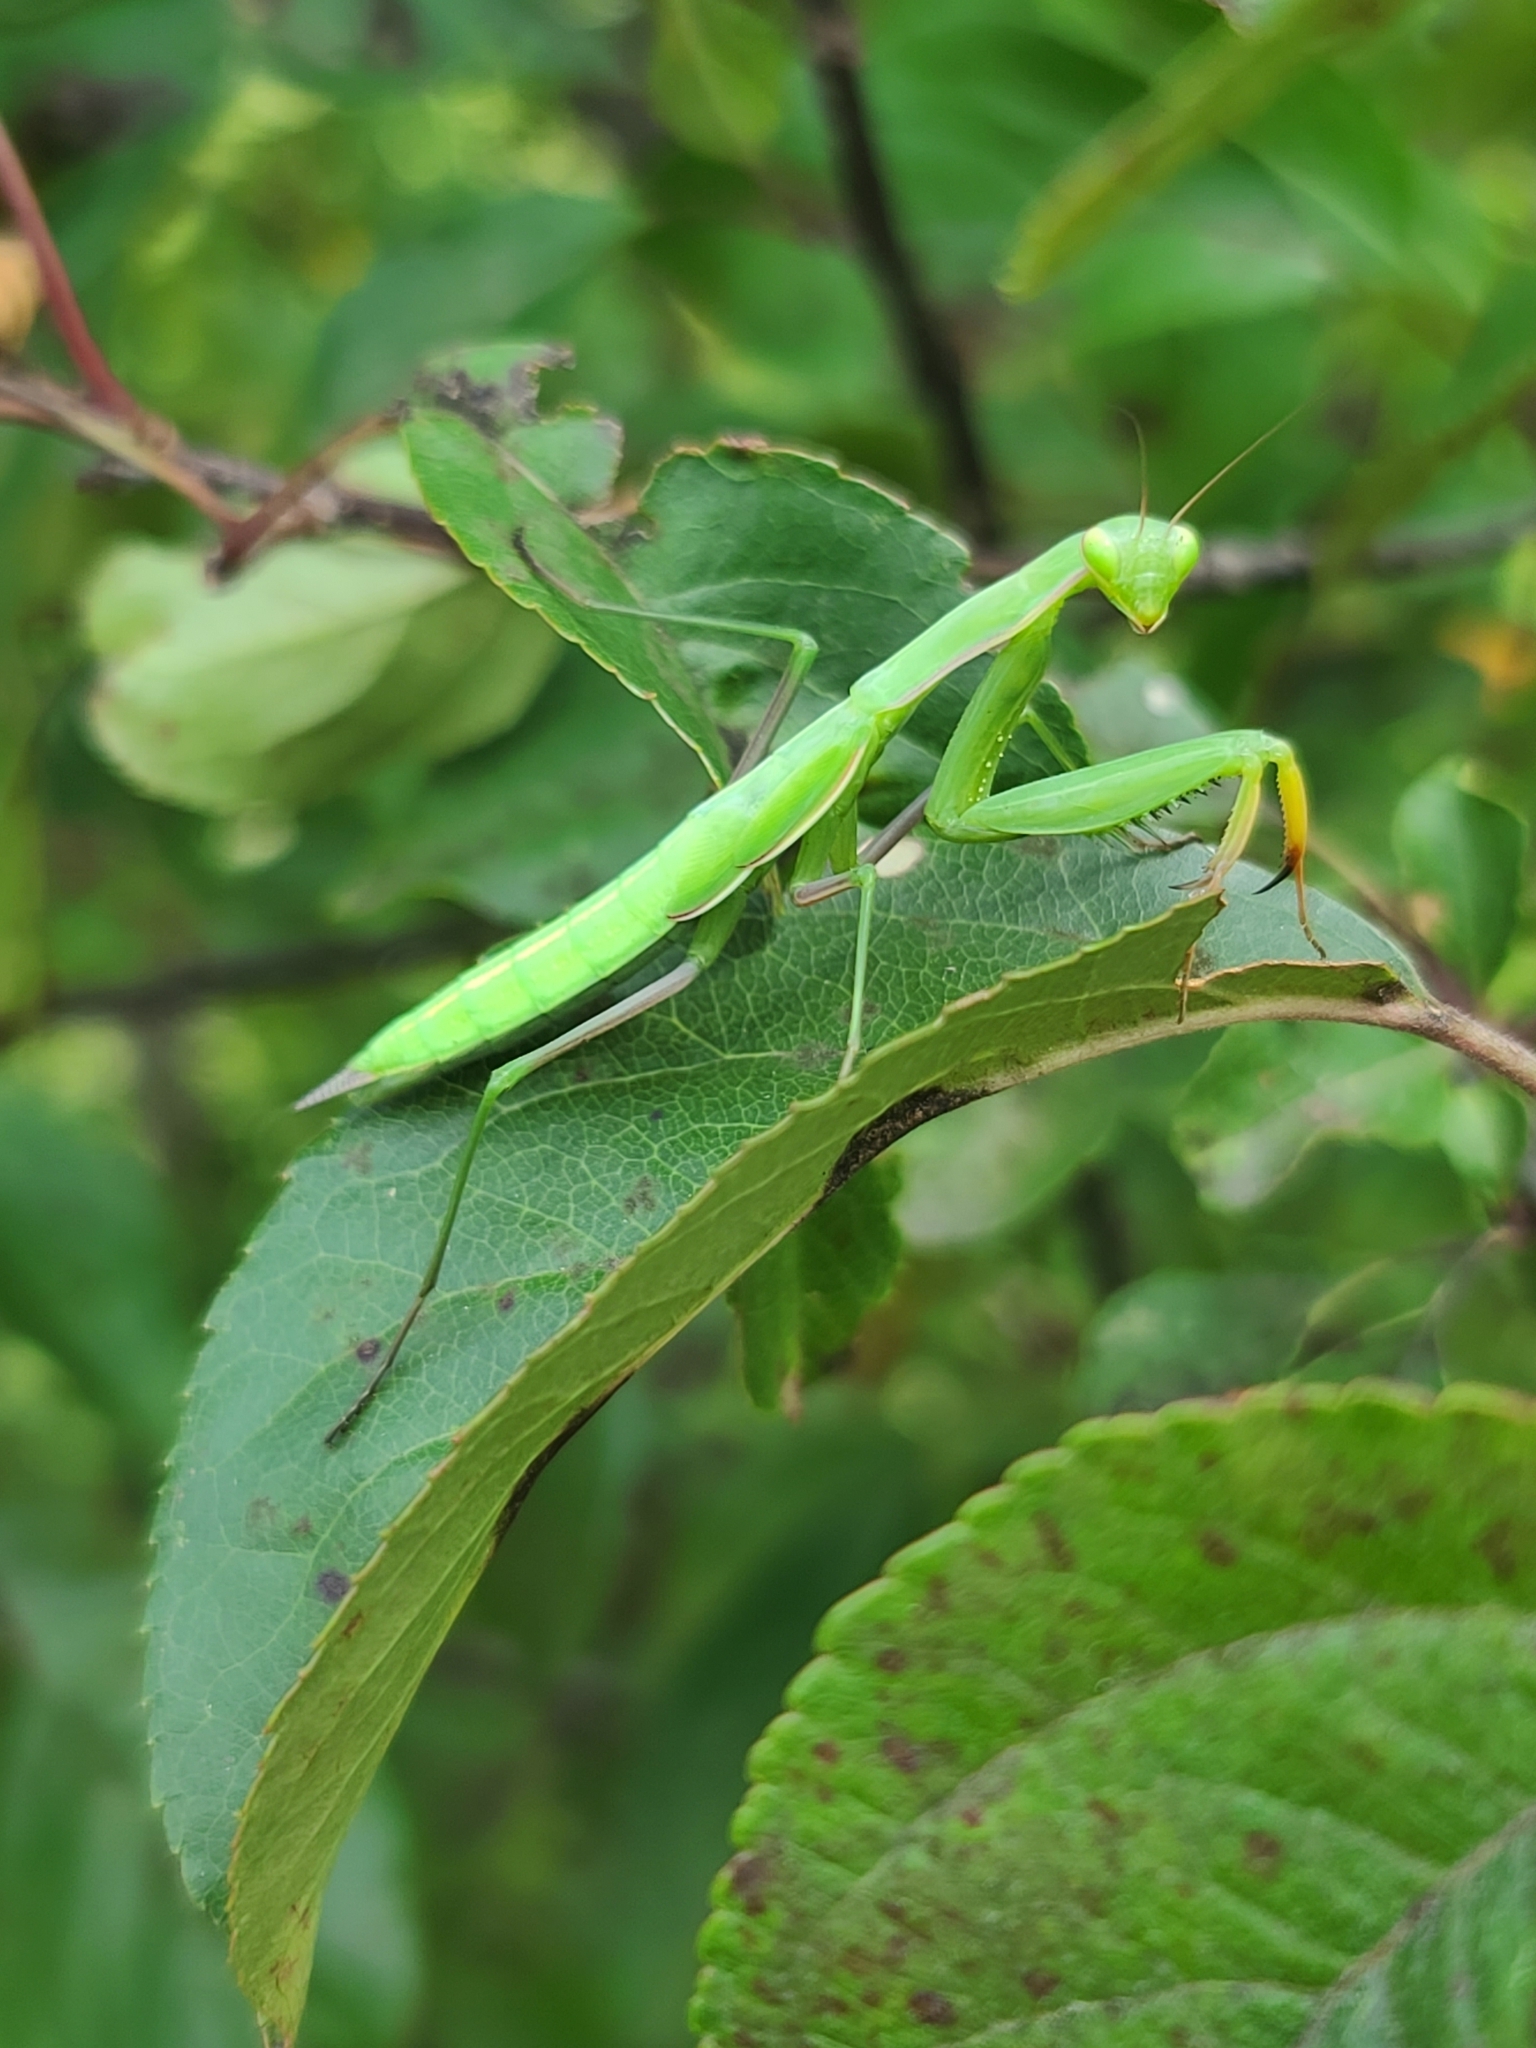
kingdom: Animalia
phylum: Arthropoda
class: Insecta
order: Mantodea
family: Mantidae
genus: Mantis
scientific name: Mantis religiosa
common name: Praying mantis
